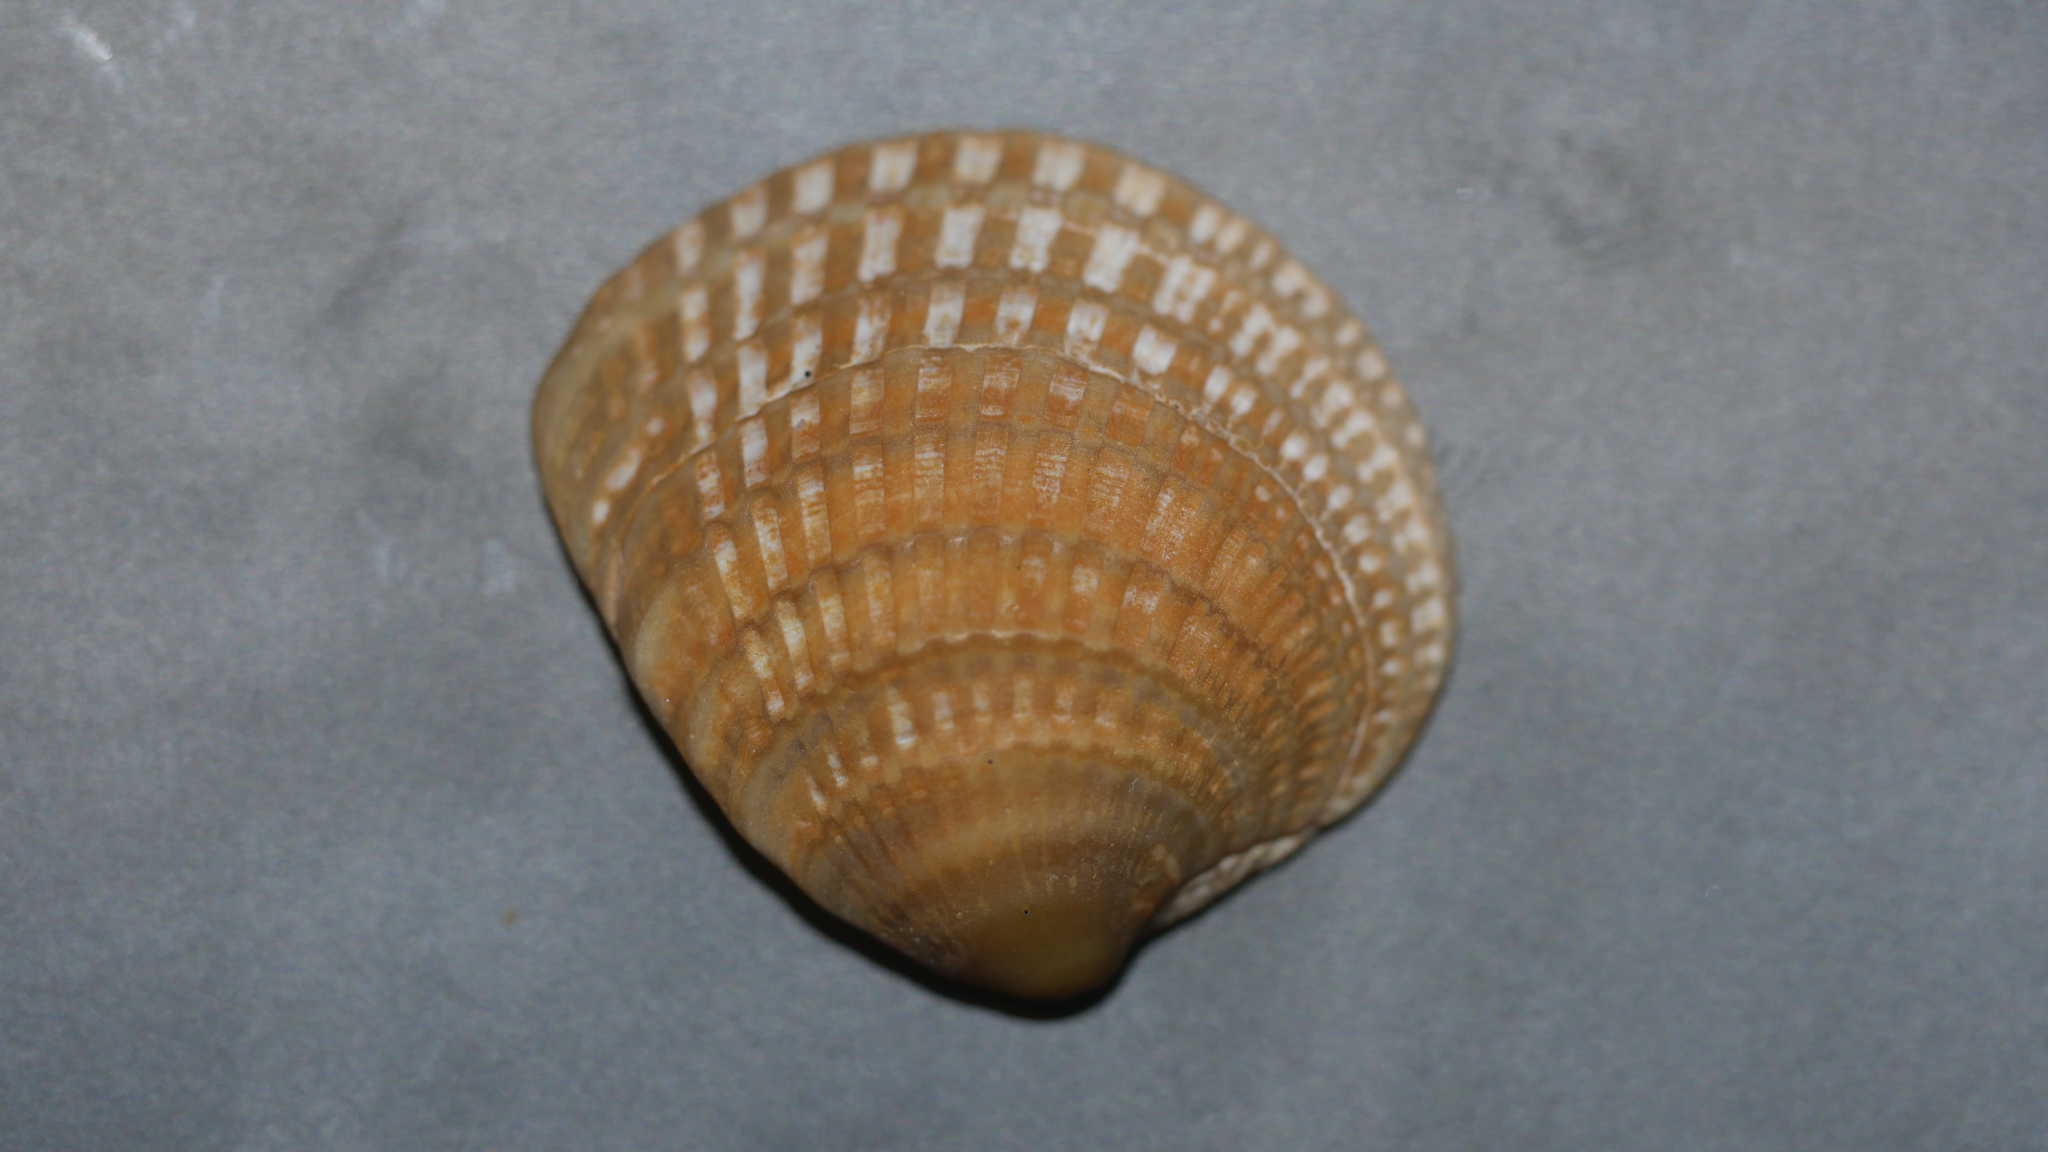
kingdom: Animalia
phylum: Mollusca
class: Bivalvia
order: Venerida
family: Veneridae
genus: Chione
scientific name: Chione elevata
